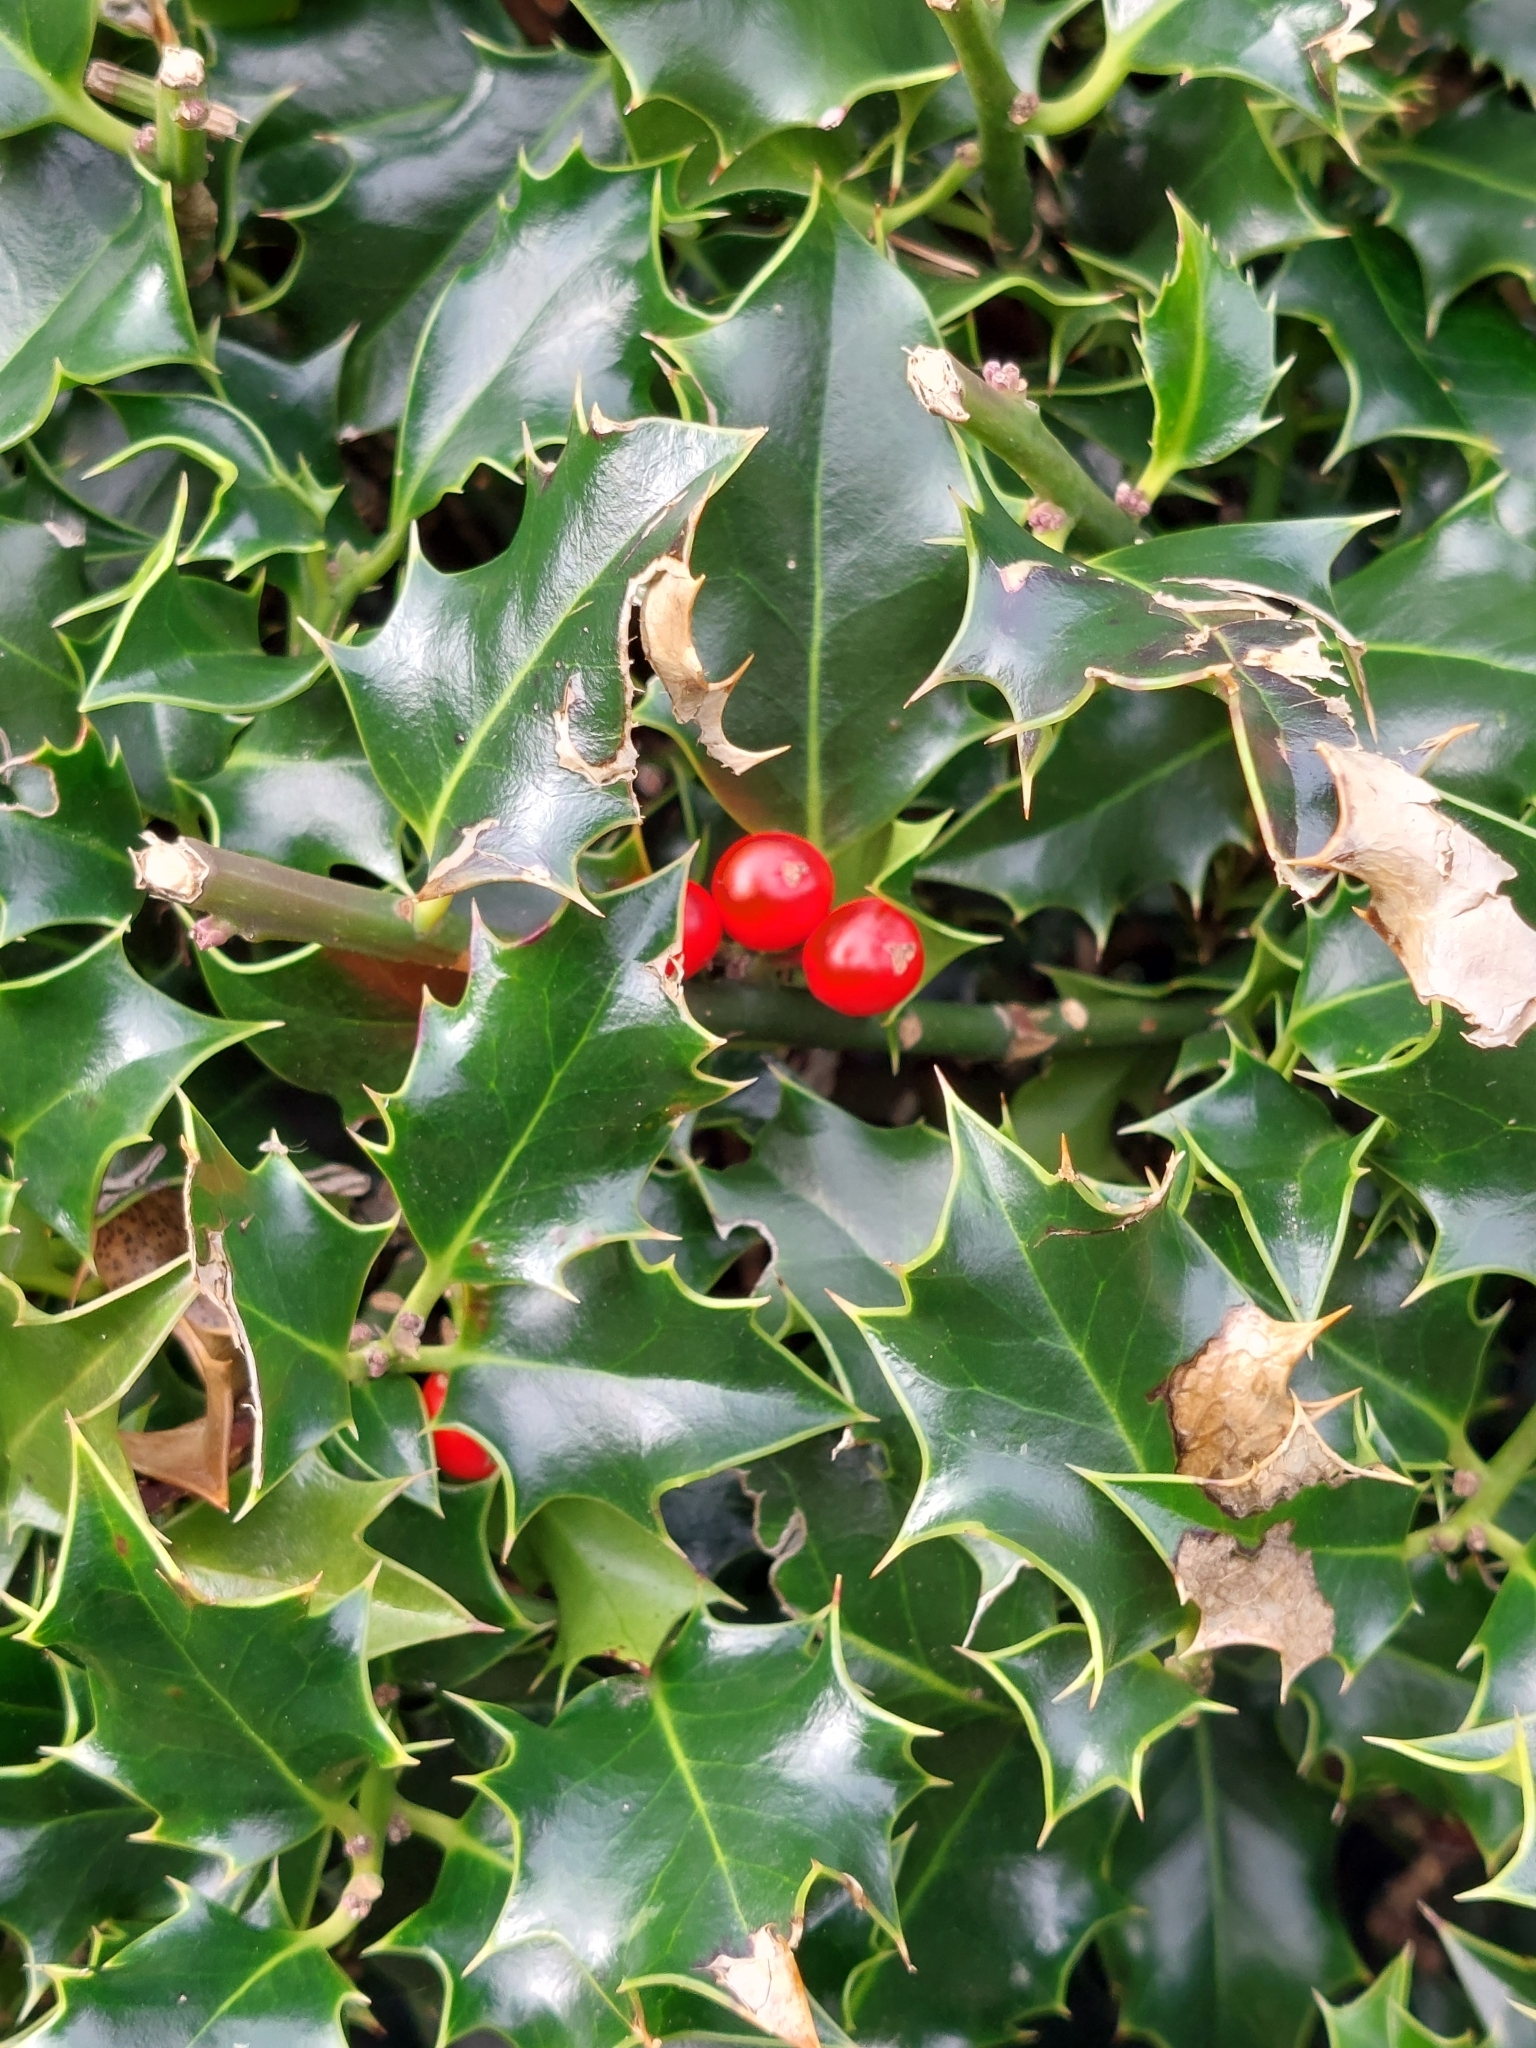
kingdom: Plantae
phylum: Tracheophyta
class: Magnoliopsida
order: Aquifoliales
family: Aquifoliaceae
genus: Ilex
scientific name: Ilex aquifolium
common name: English holly
